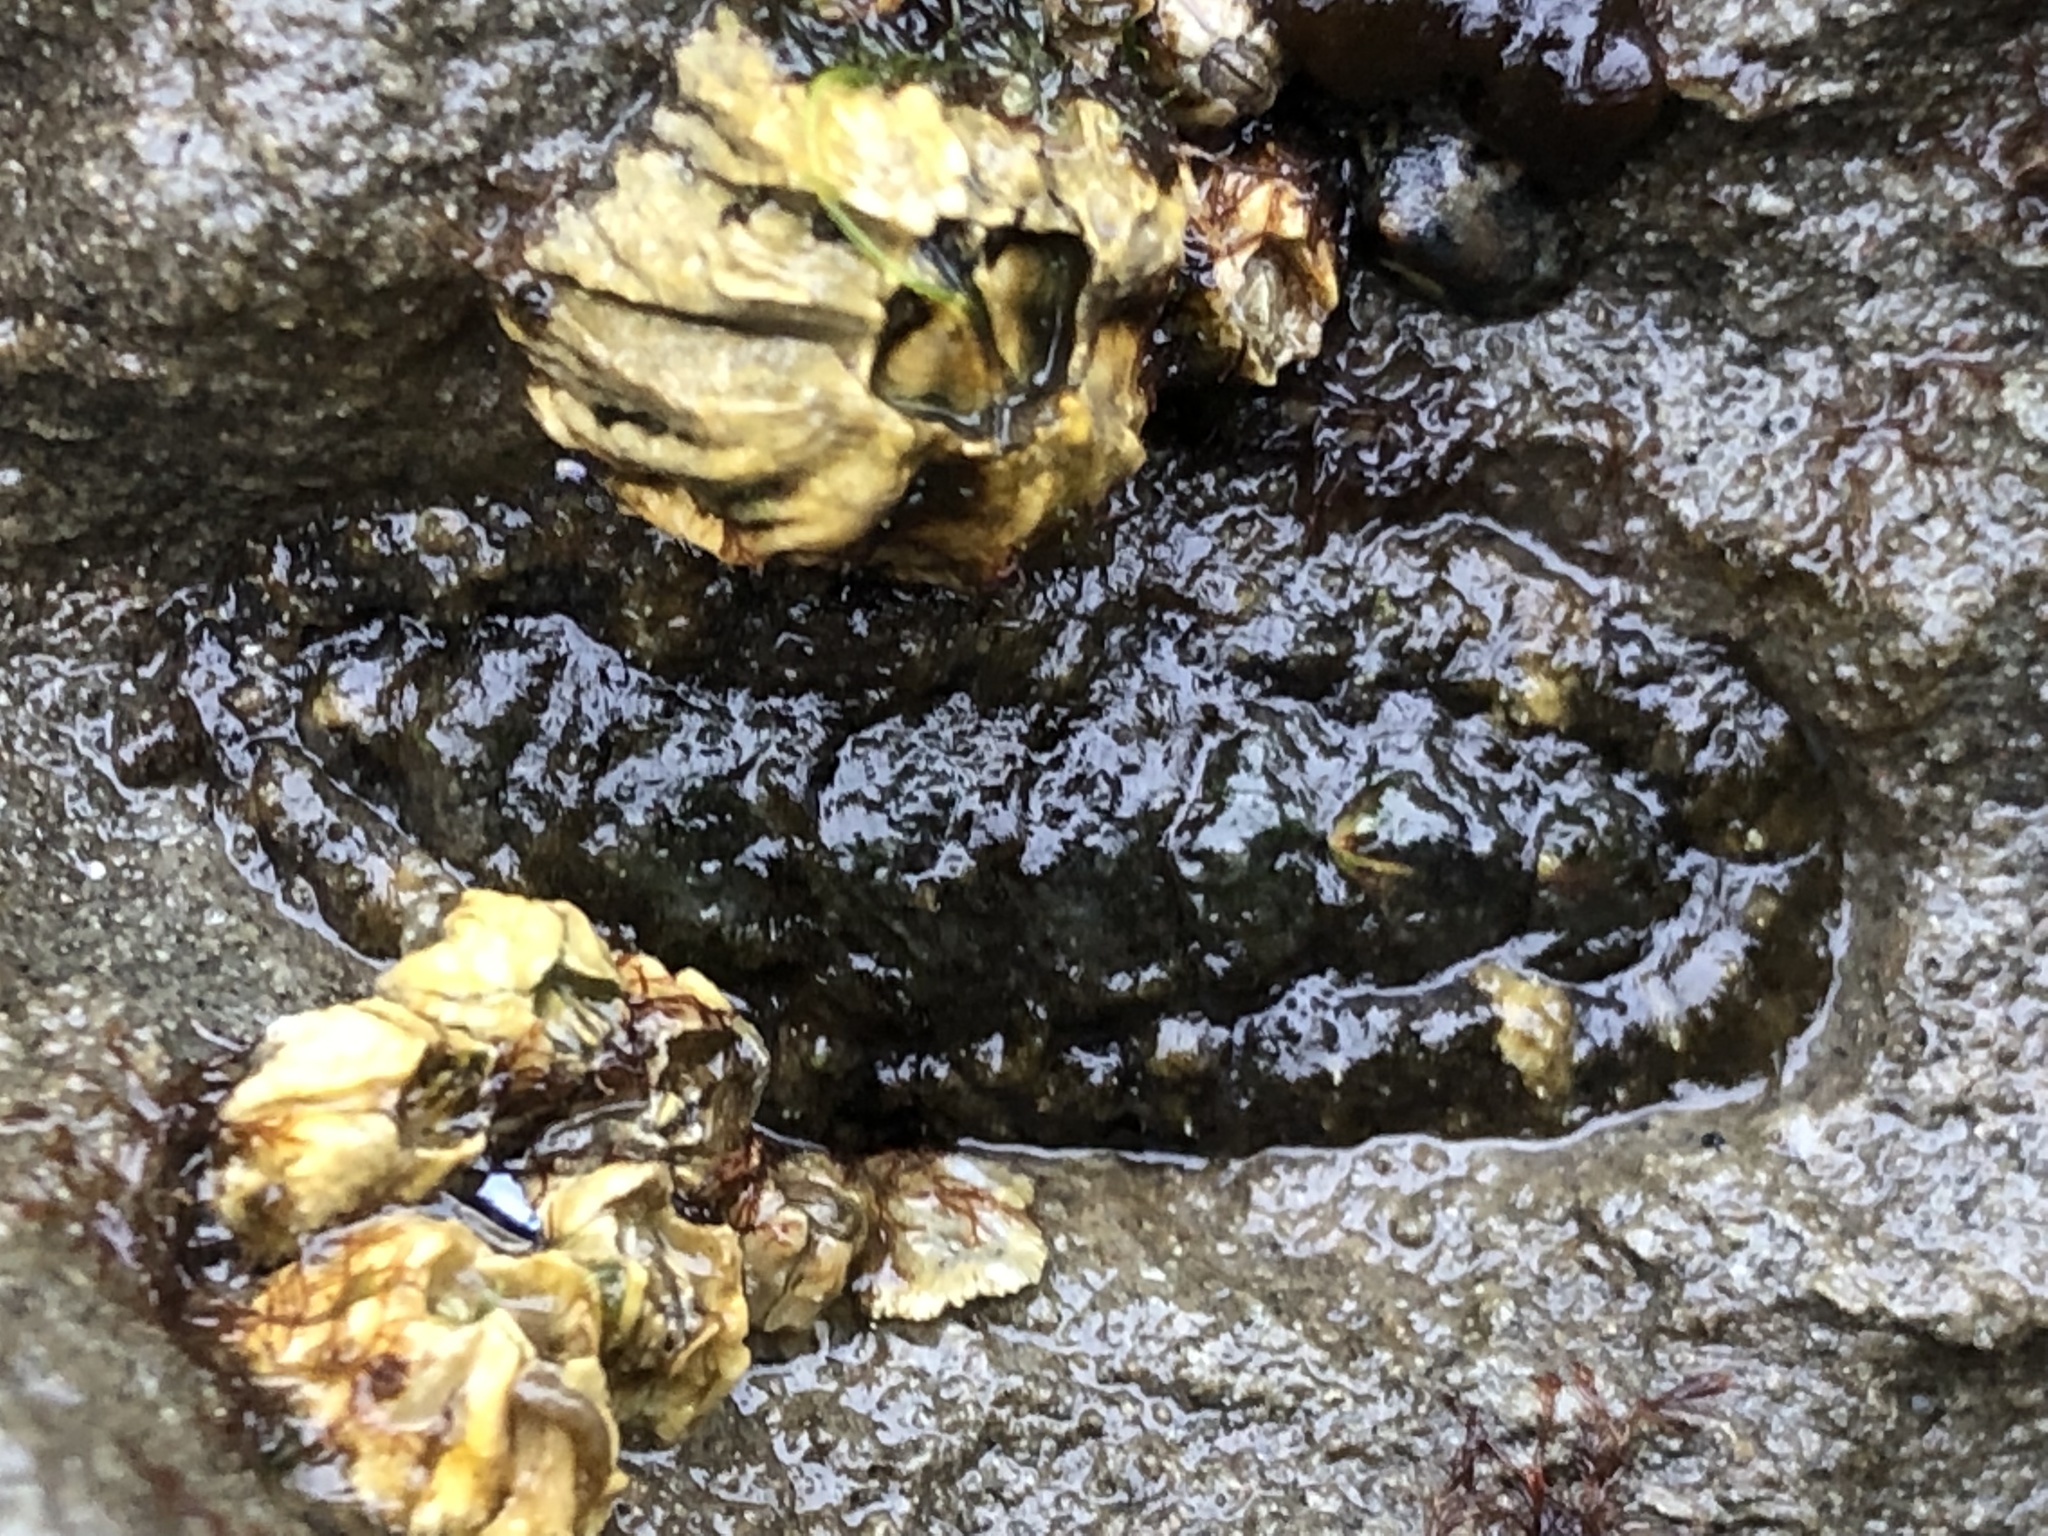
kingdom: Animalia
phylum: Mollusca
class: Polyplacophora
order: Chitonida
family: Tonicellidae
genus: Nuttallina
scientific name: Nuttallina californica
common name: California nuttall chiton
